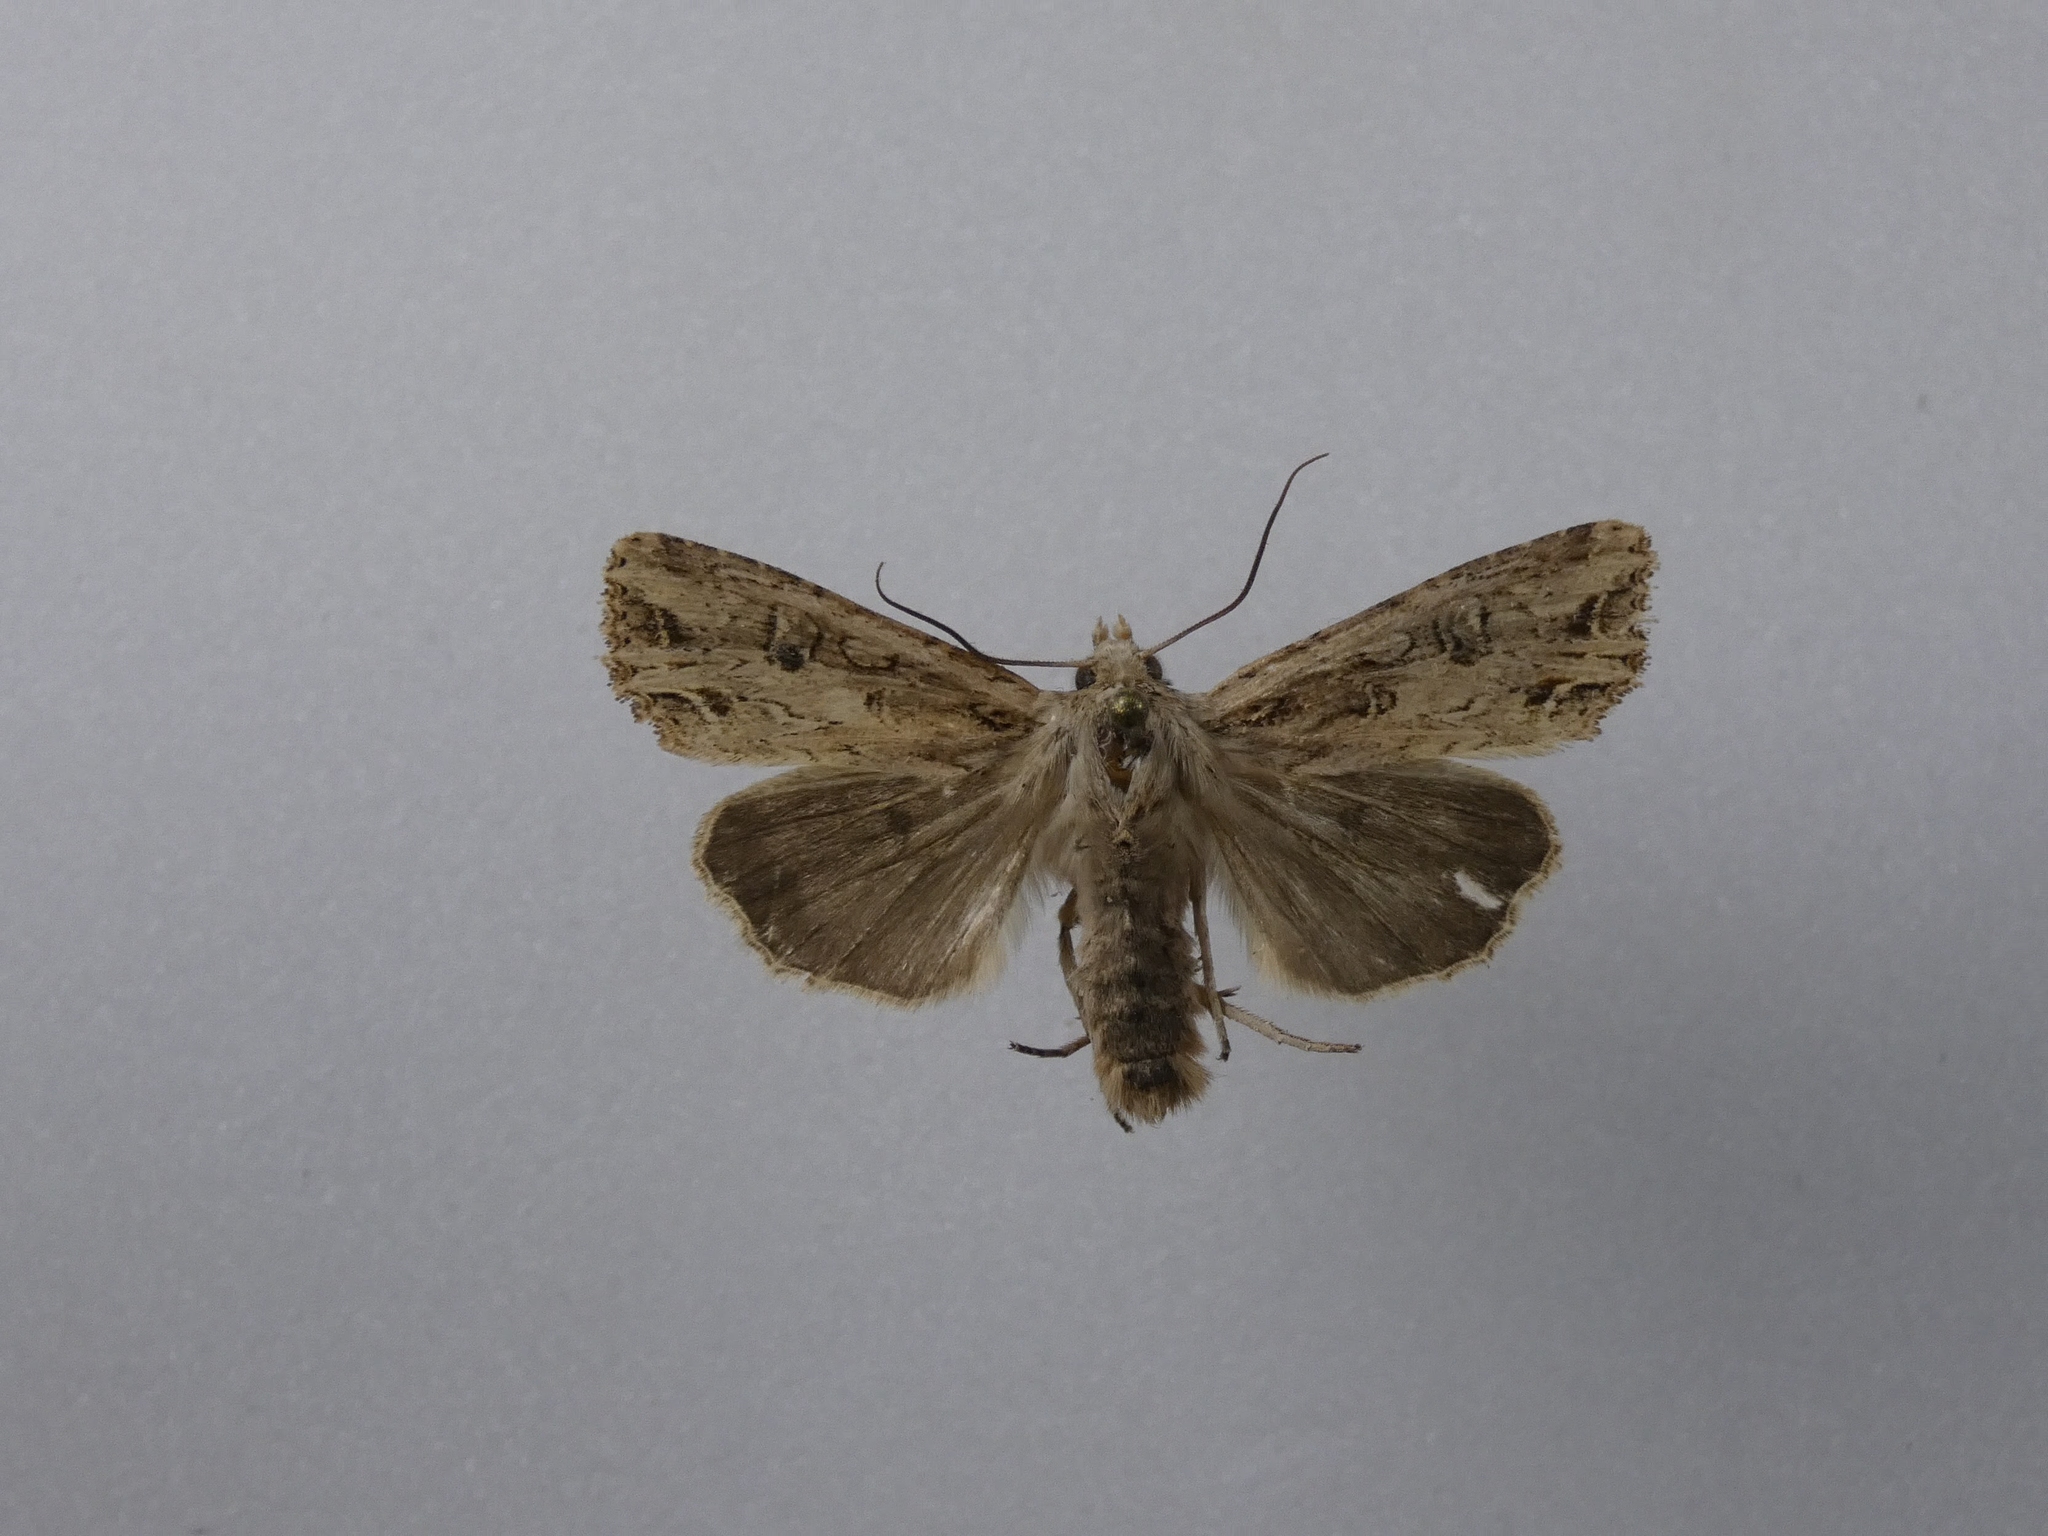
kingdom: Animalia
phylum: Arthropoda
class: Insecta
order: Lepidoptera
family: Noctuidae
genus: Ichneutica
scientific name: Ichneutica lignana
